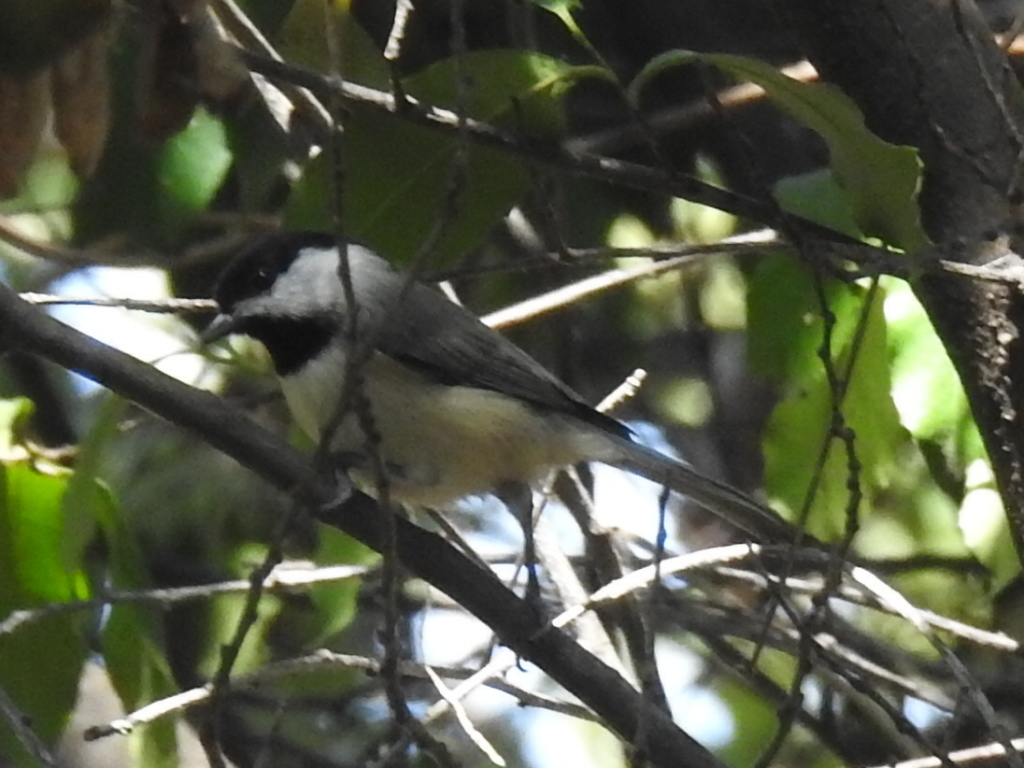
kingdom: Animalia
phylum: Chordata
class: Aves
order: Passeriformes
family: Paridae
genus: Poecile
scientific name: Poecile carolinensis
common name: Carolina chickadee
